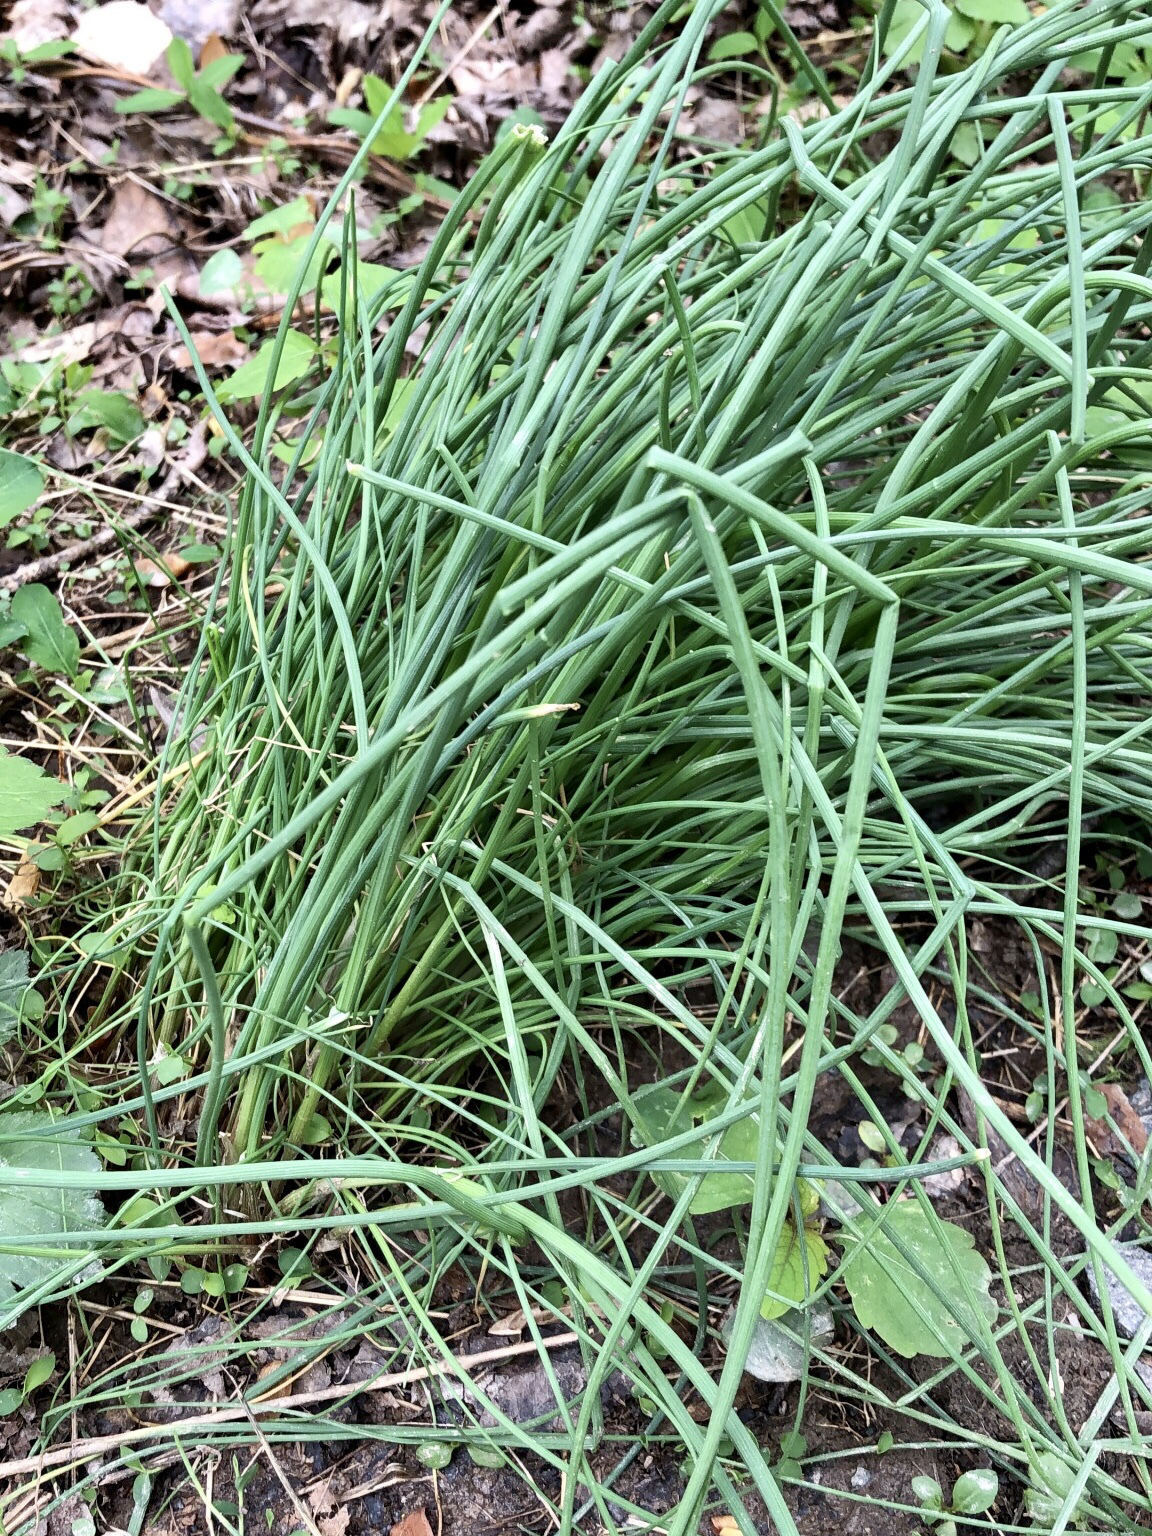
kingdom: Plantae
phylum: Tracheophyta
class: Liliopsida
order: Asparagales
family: Amaryllidaceae
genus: Allium
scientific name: Allium vineale
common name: Crow garlic
